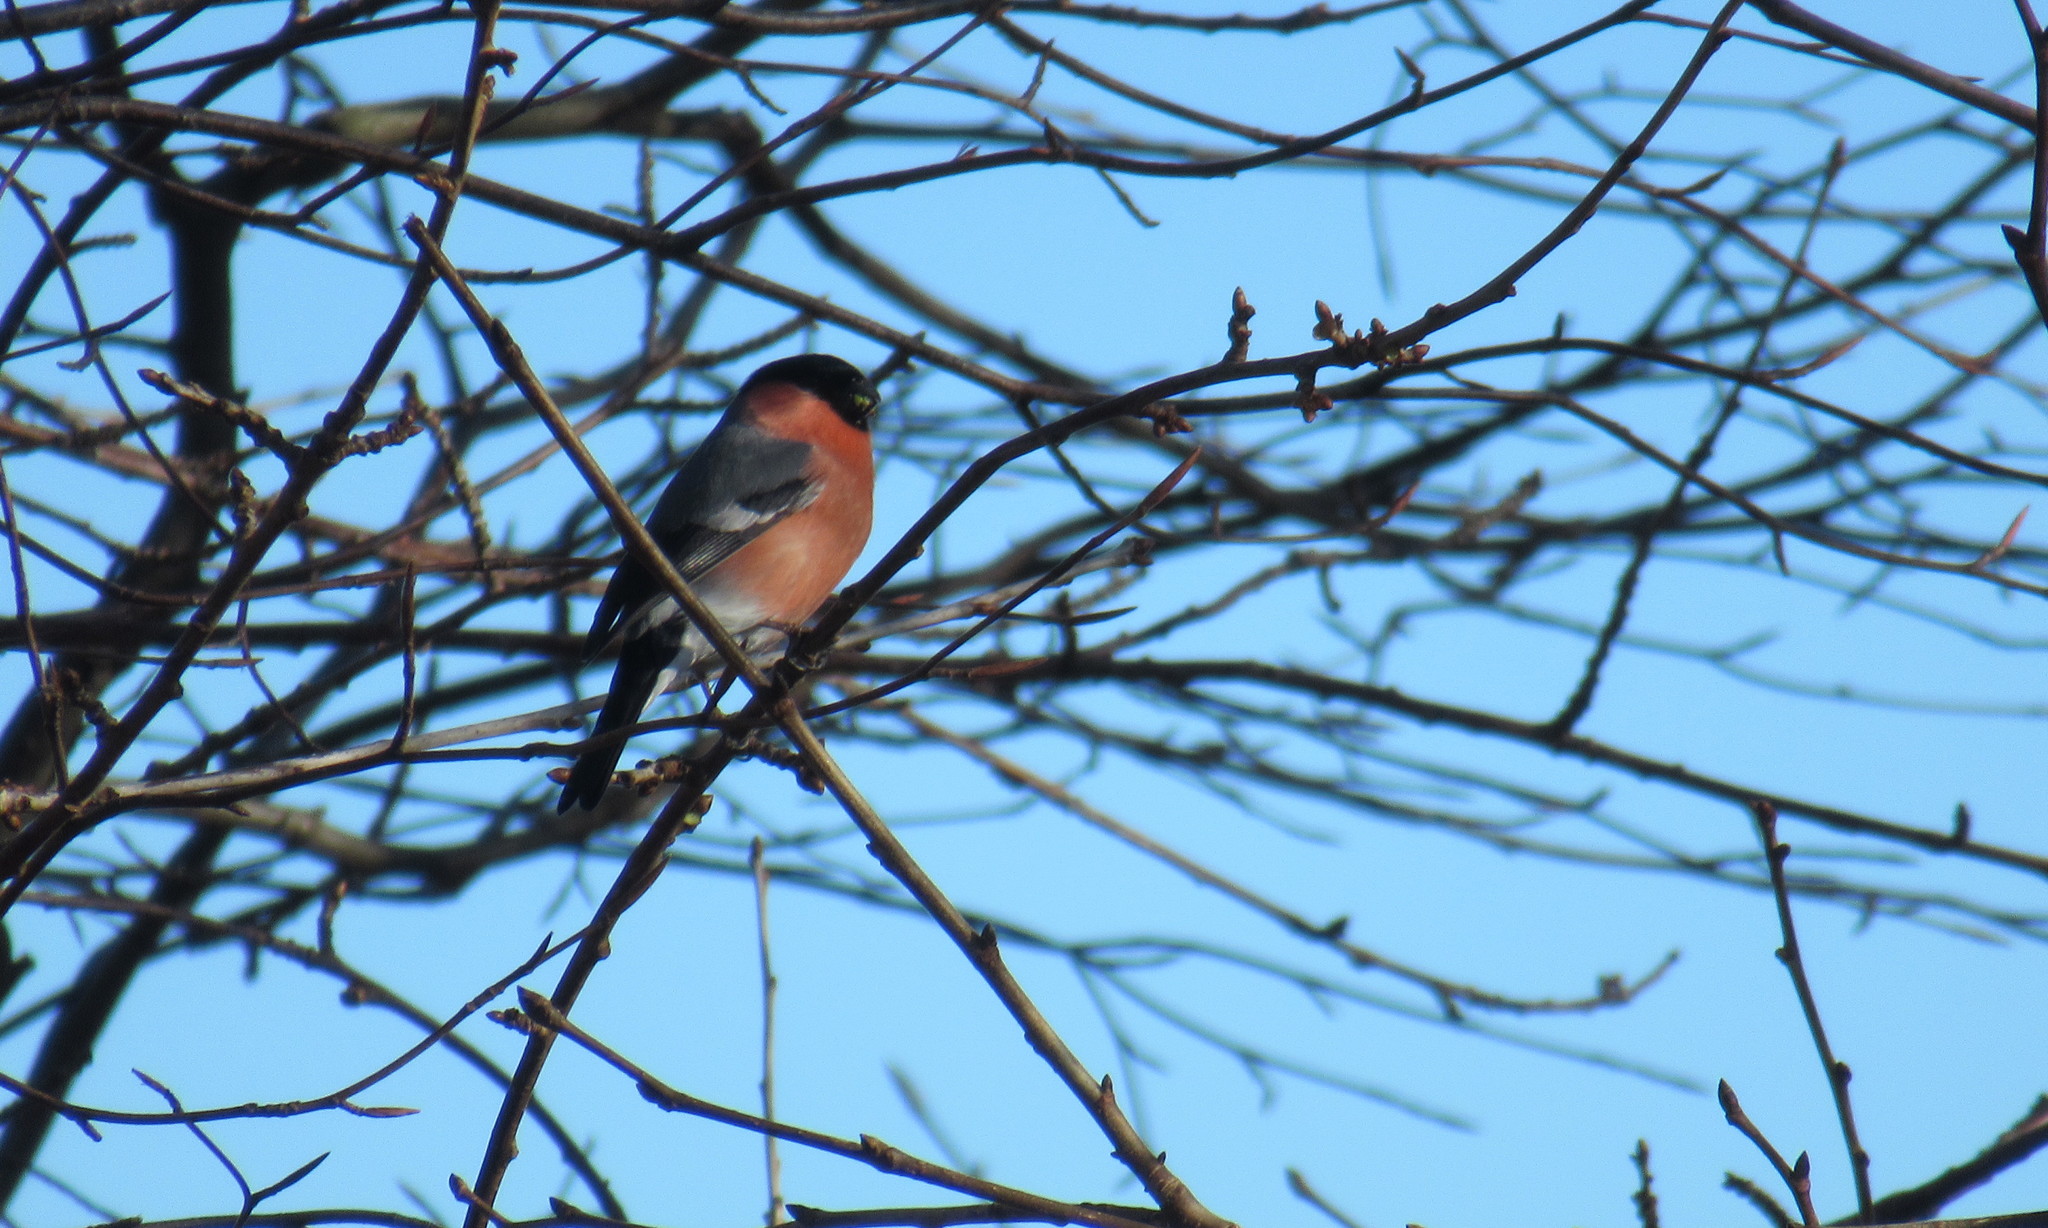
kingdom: Animalia
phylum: Chordata
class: Aves
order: Passeriformes
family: Fringillidae
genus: Pyrrhula
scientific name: Pyrrhula pyrrhula
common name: Eurasian bullfinch
